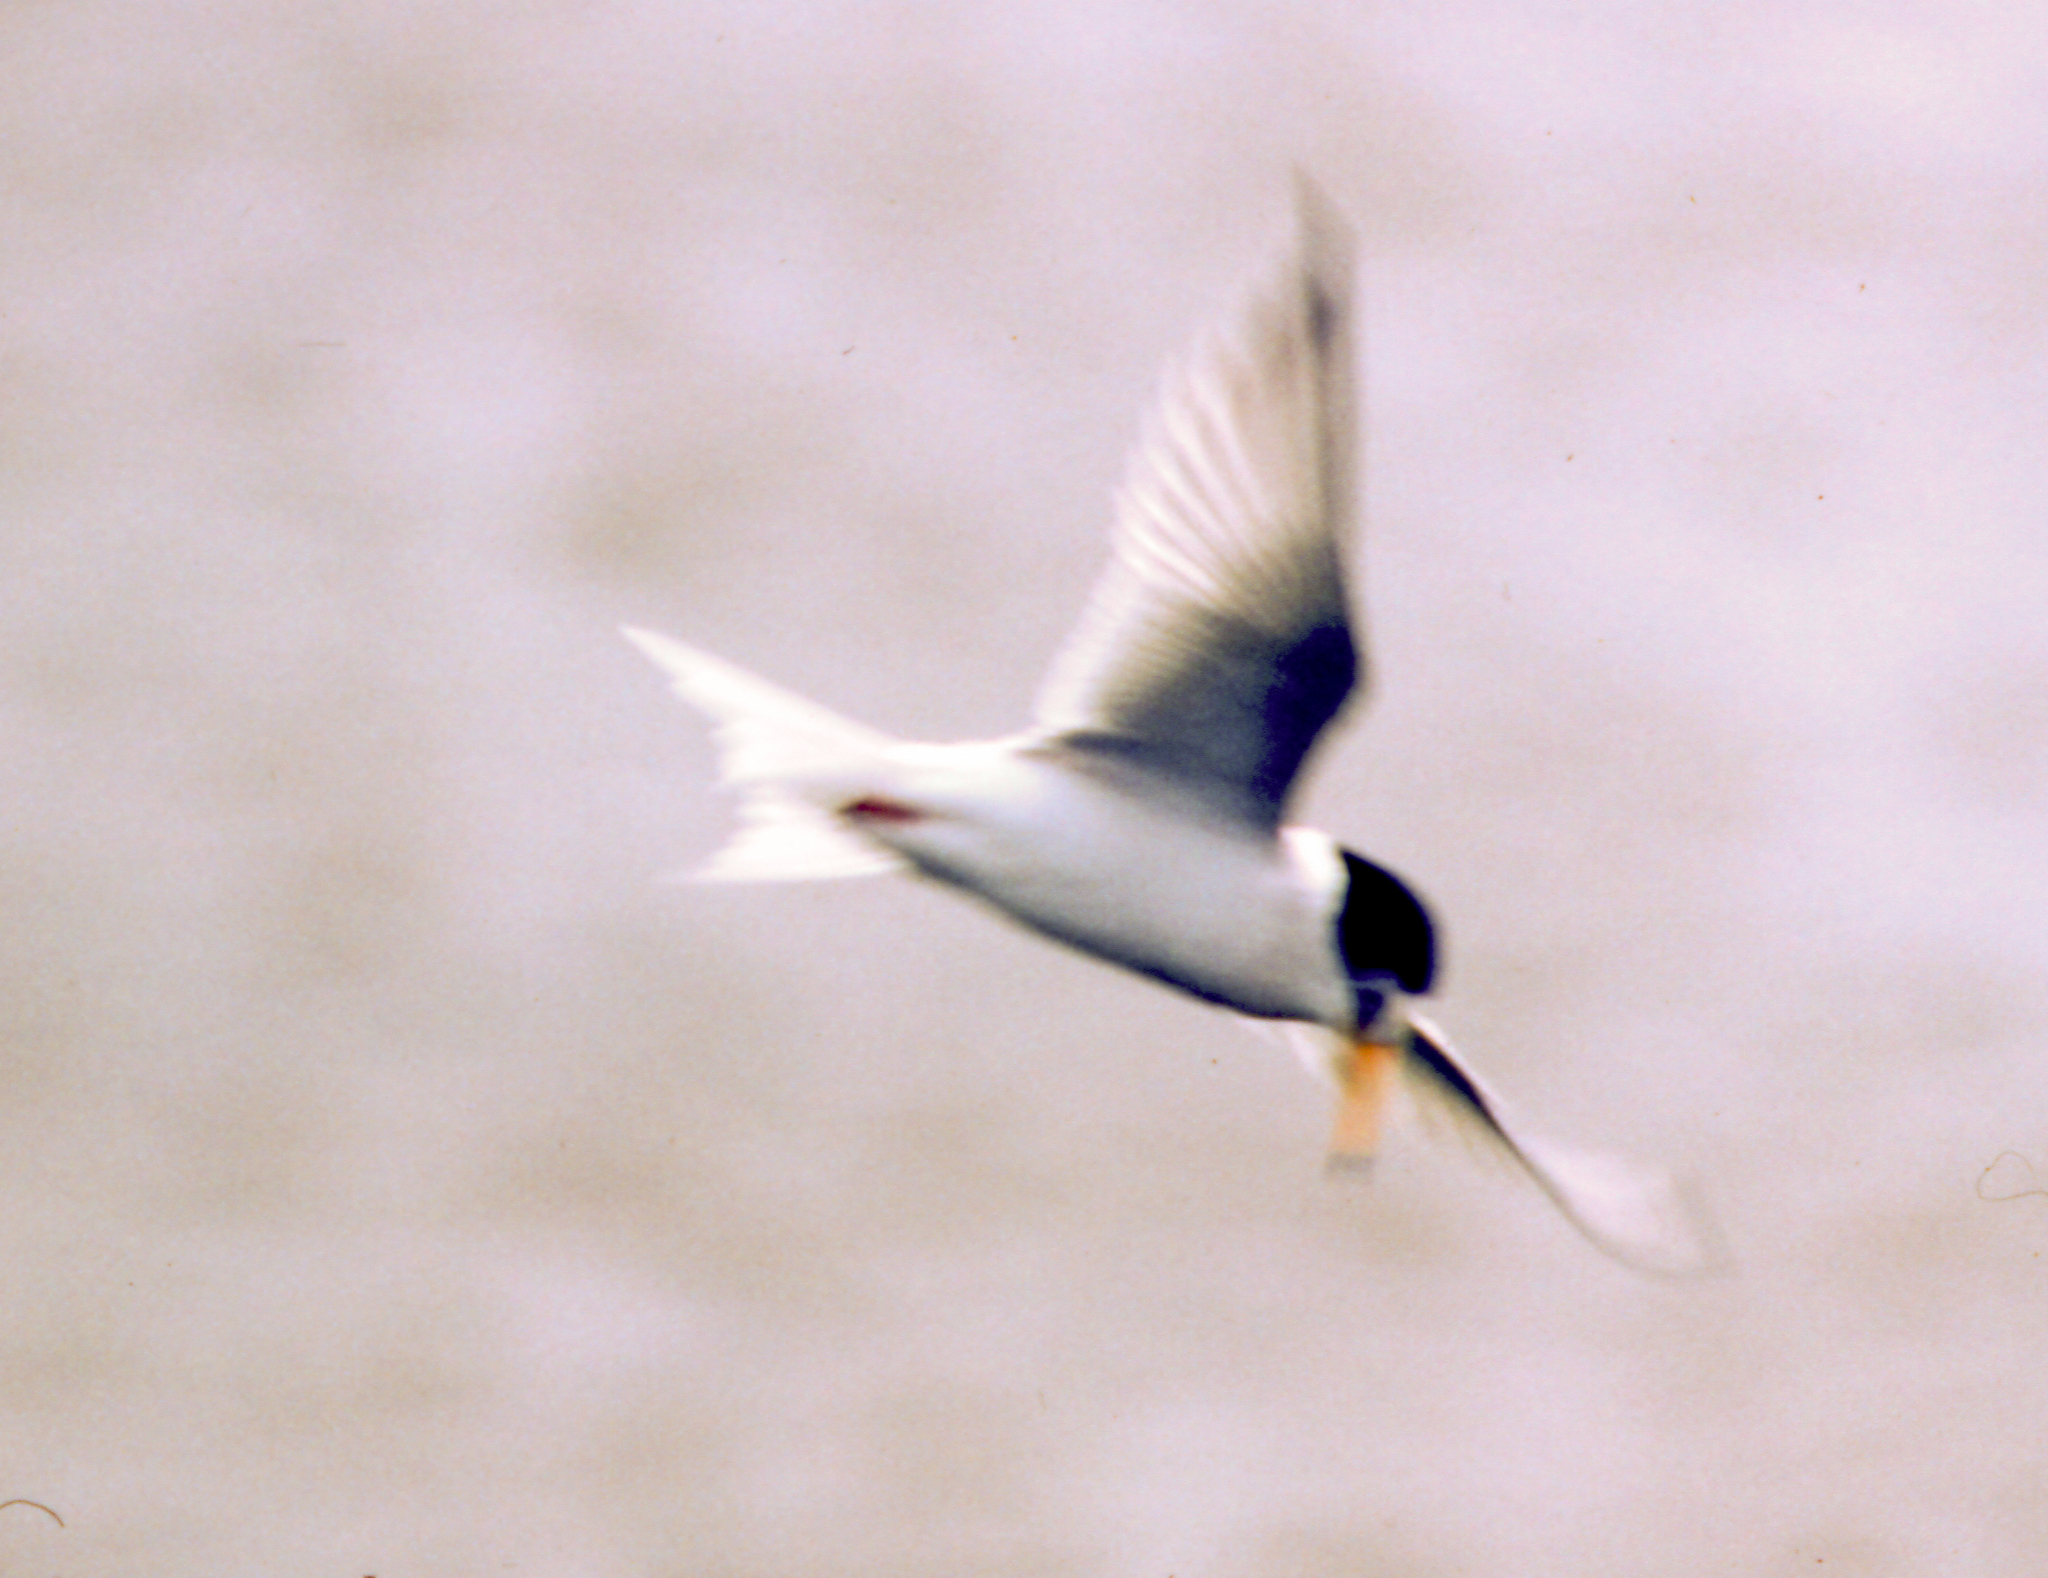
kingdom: Animalia
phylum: Chordata
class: Aves
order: Charadriiformes
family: Laridae
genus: Sternula
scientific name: Sternula albifrons
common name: Little tern
